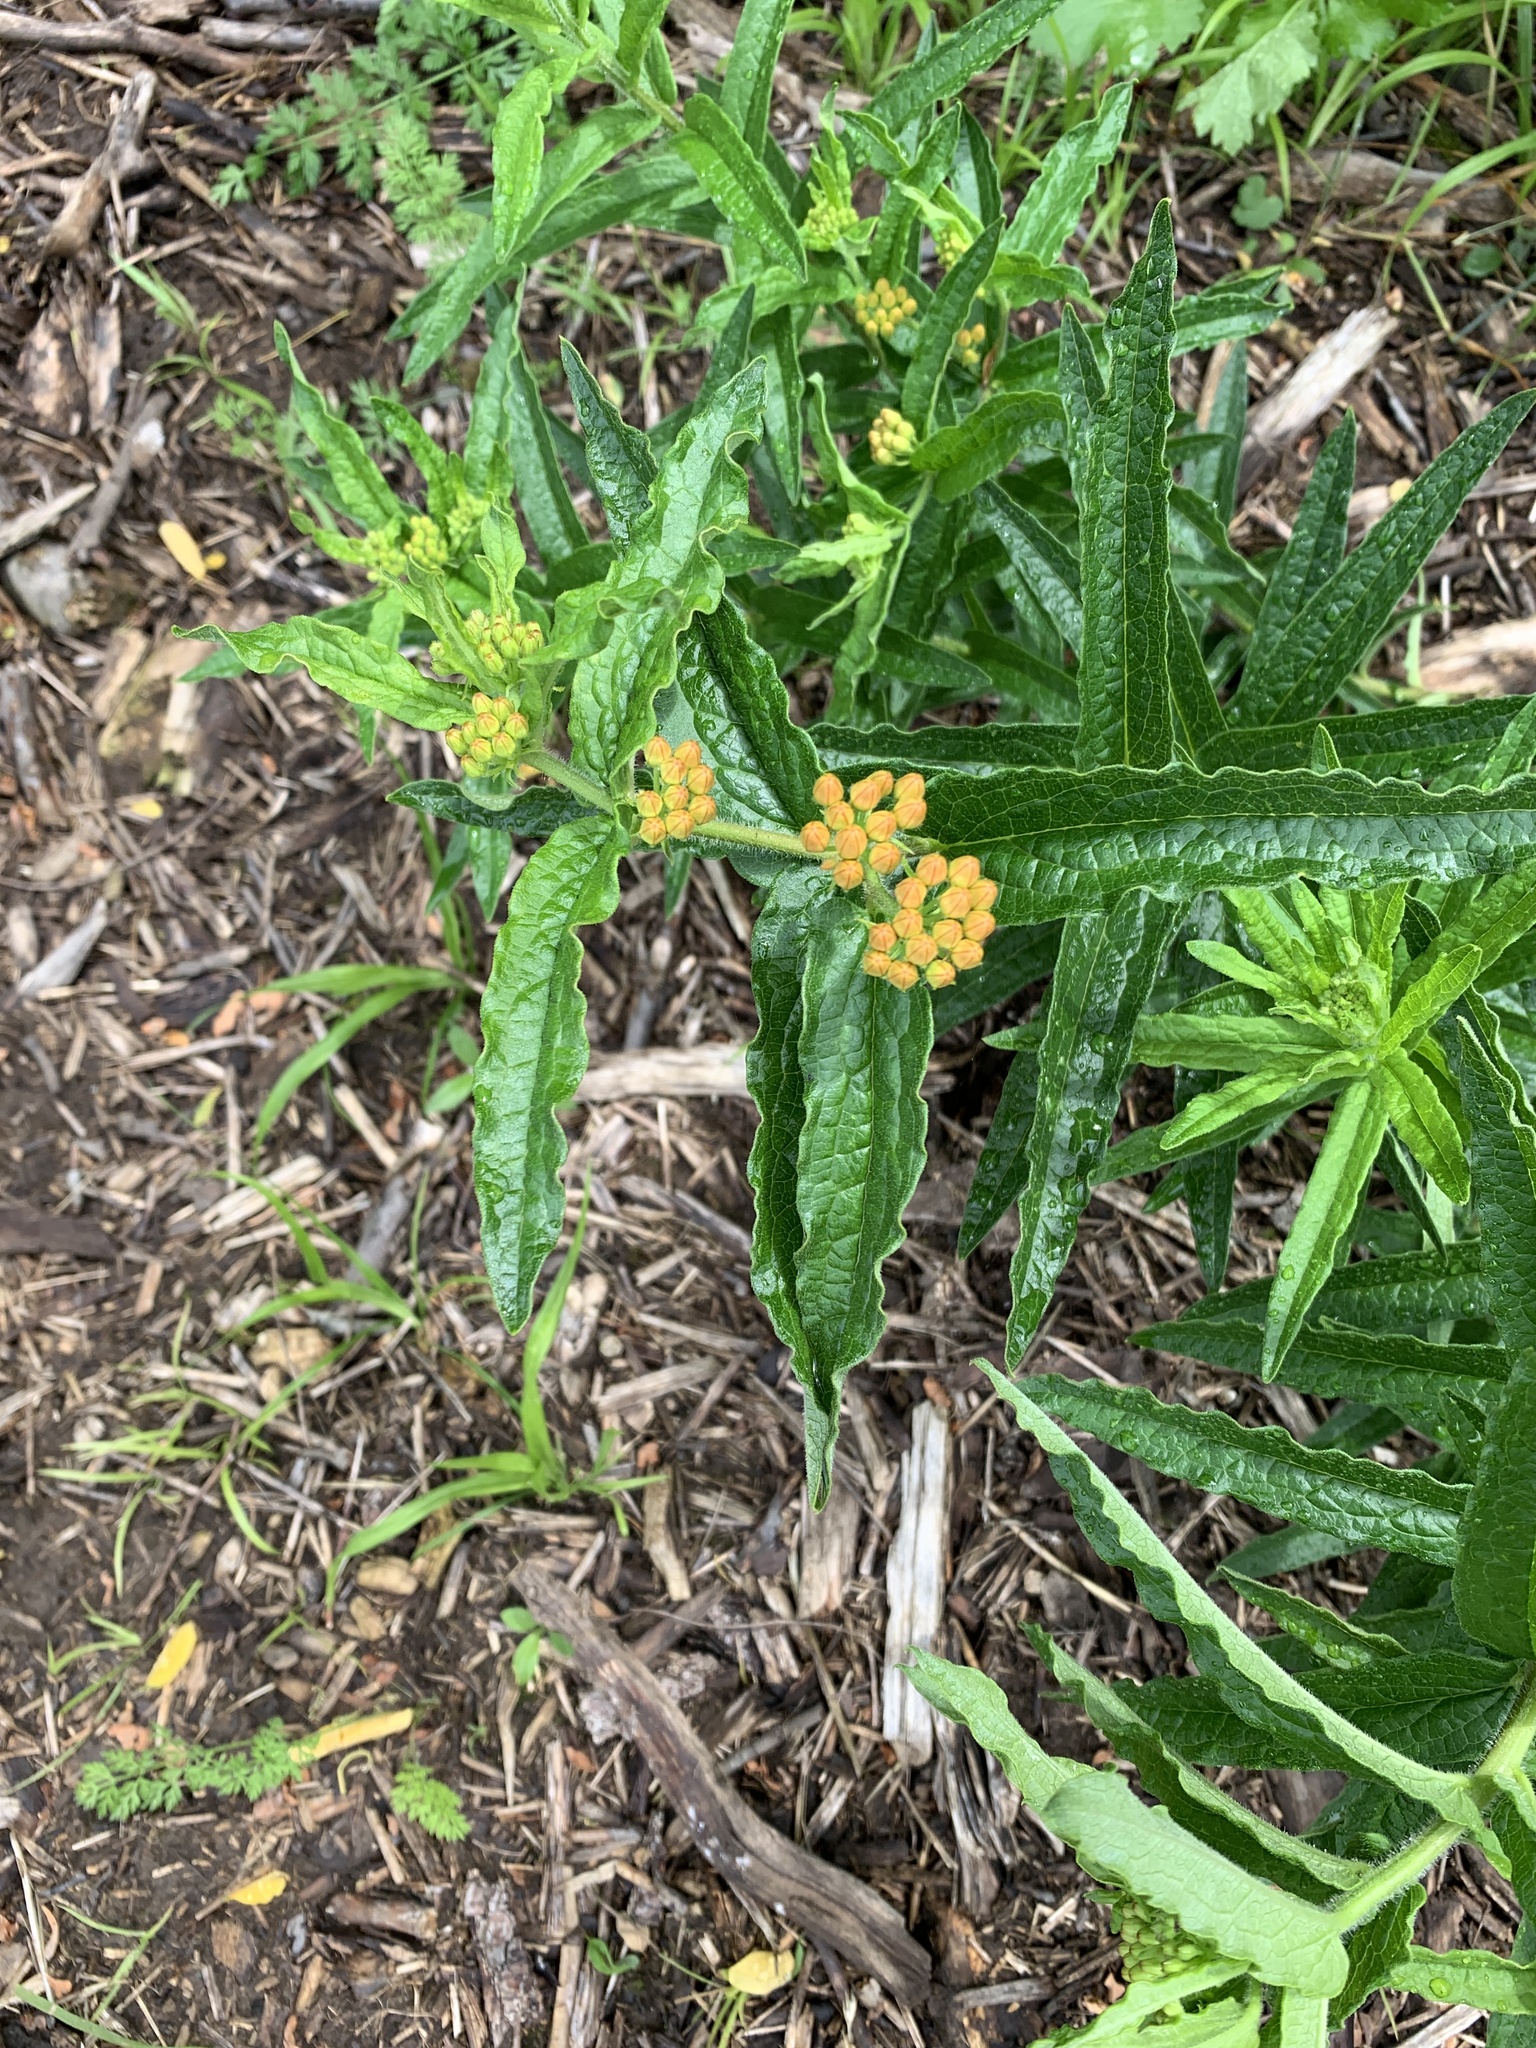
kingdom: Plantae
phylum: Tracheophyta
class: Magnoliopsida
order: Gentianales
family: Apocynaceae
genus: Asclepias
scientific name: Asclepias tuberosa
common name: Butterfly milkweed
